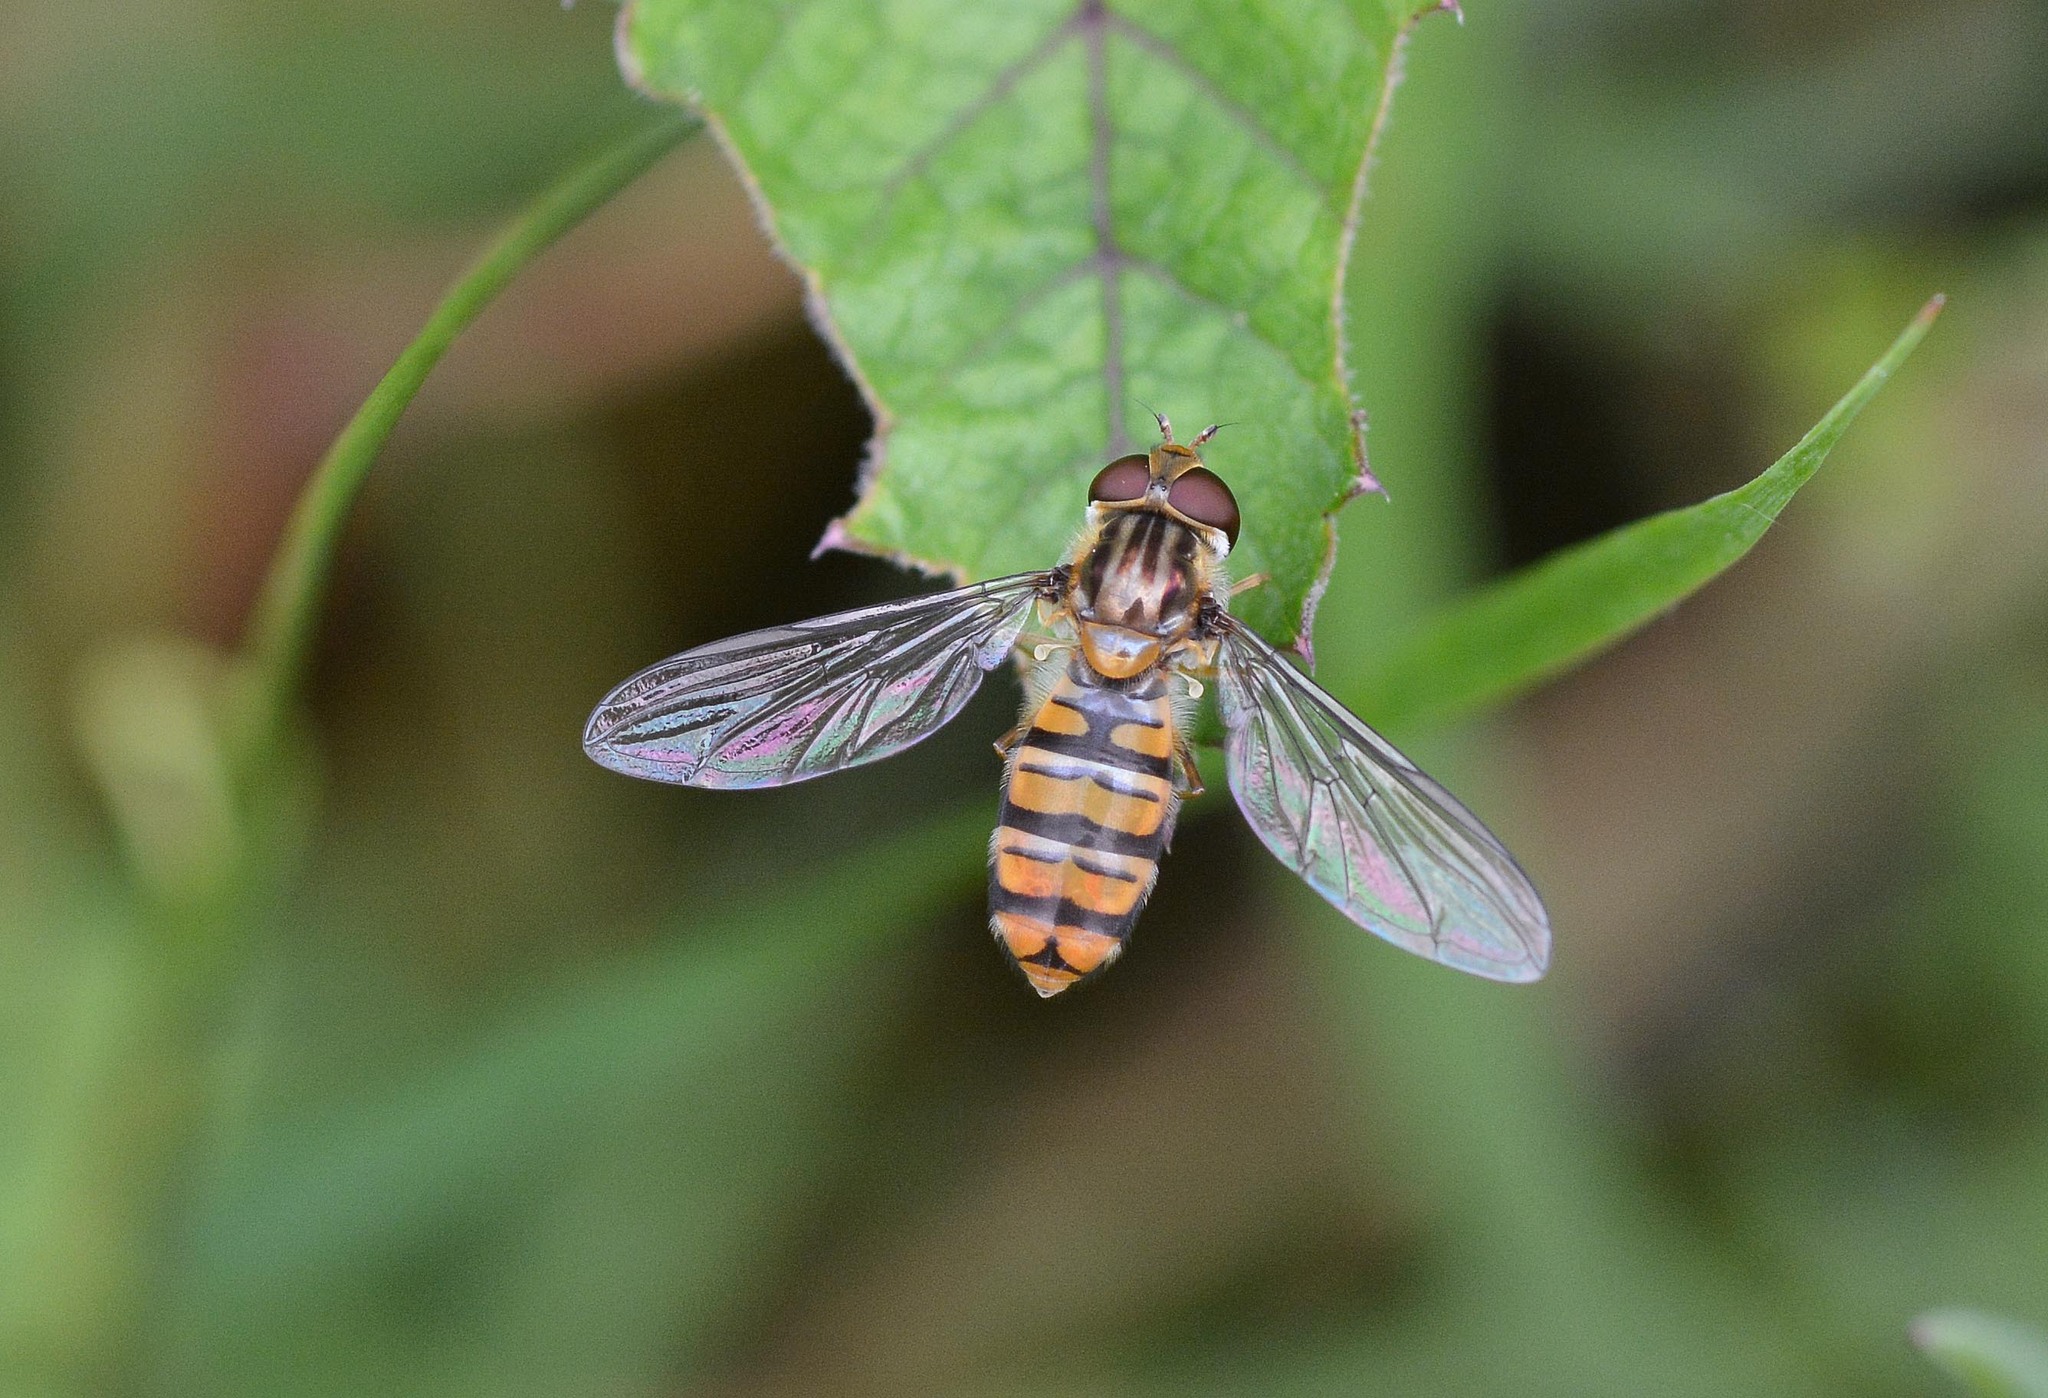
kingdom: Animalia
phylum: Arthropoda
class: Insecta
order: Diptera
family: Syrphidae
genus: Episyrphus
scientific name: Episyrphus balteatus
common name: Marmalade hoverfly
